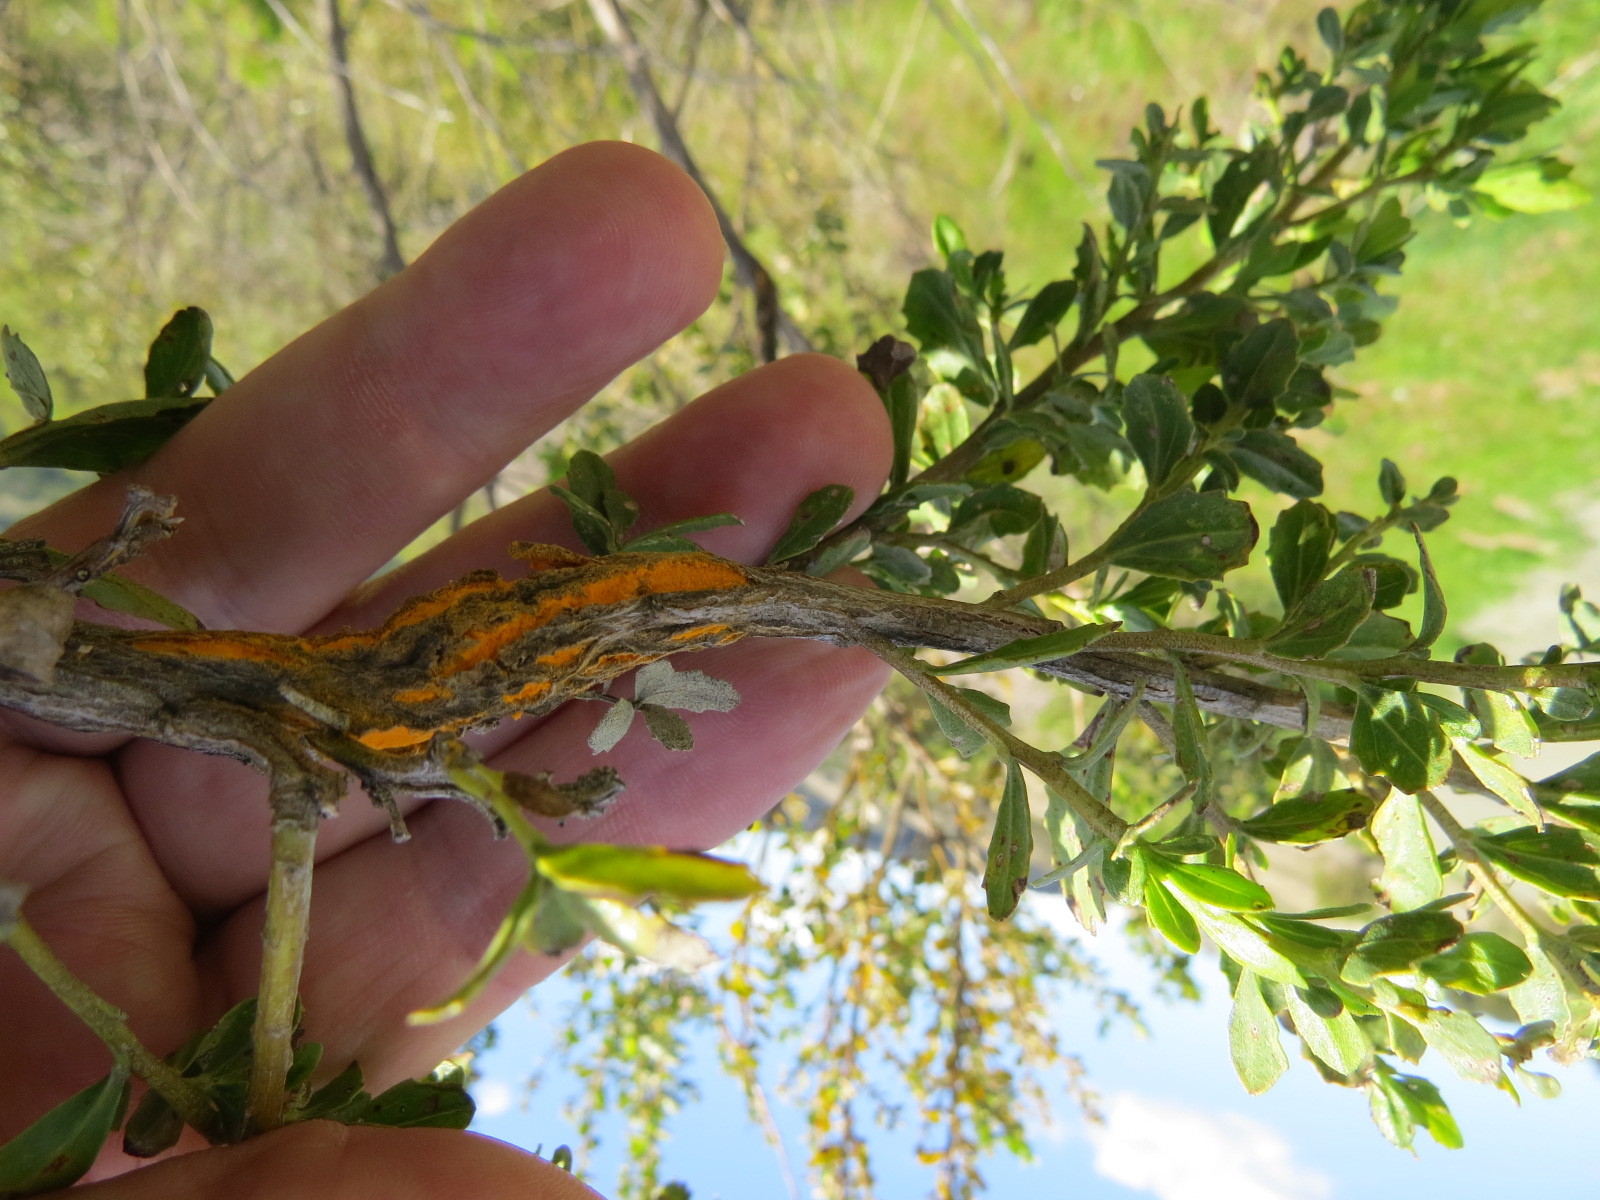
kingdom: Fungi
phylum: Basidiomycota
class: Pucciniomycetes
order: Pucciniales
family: Pucciniaceae
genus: Eriosporangium
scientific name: Eriosporangium evadens
